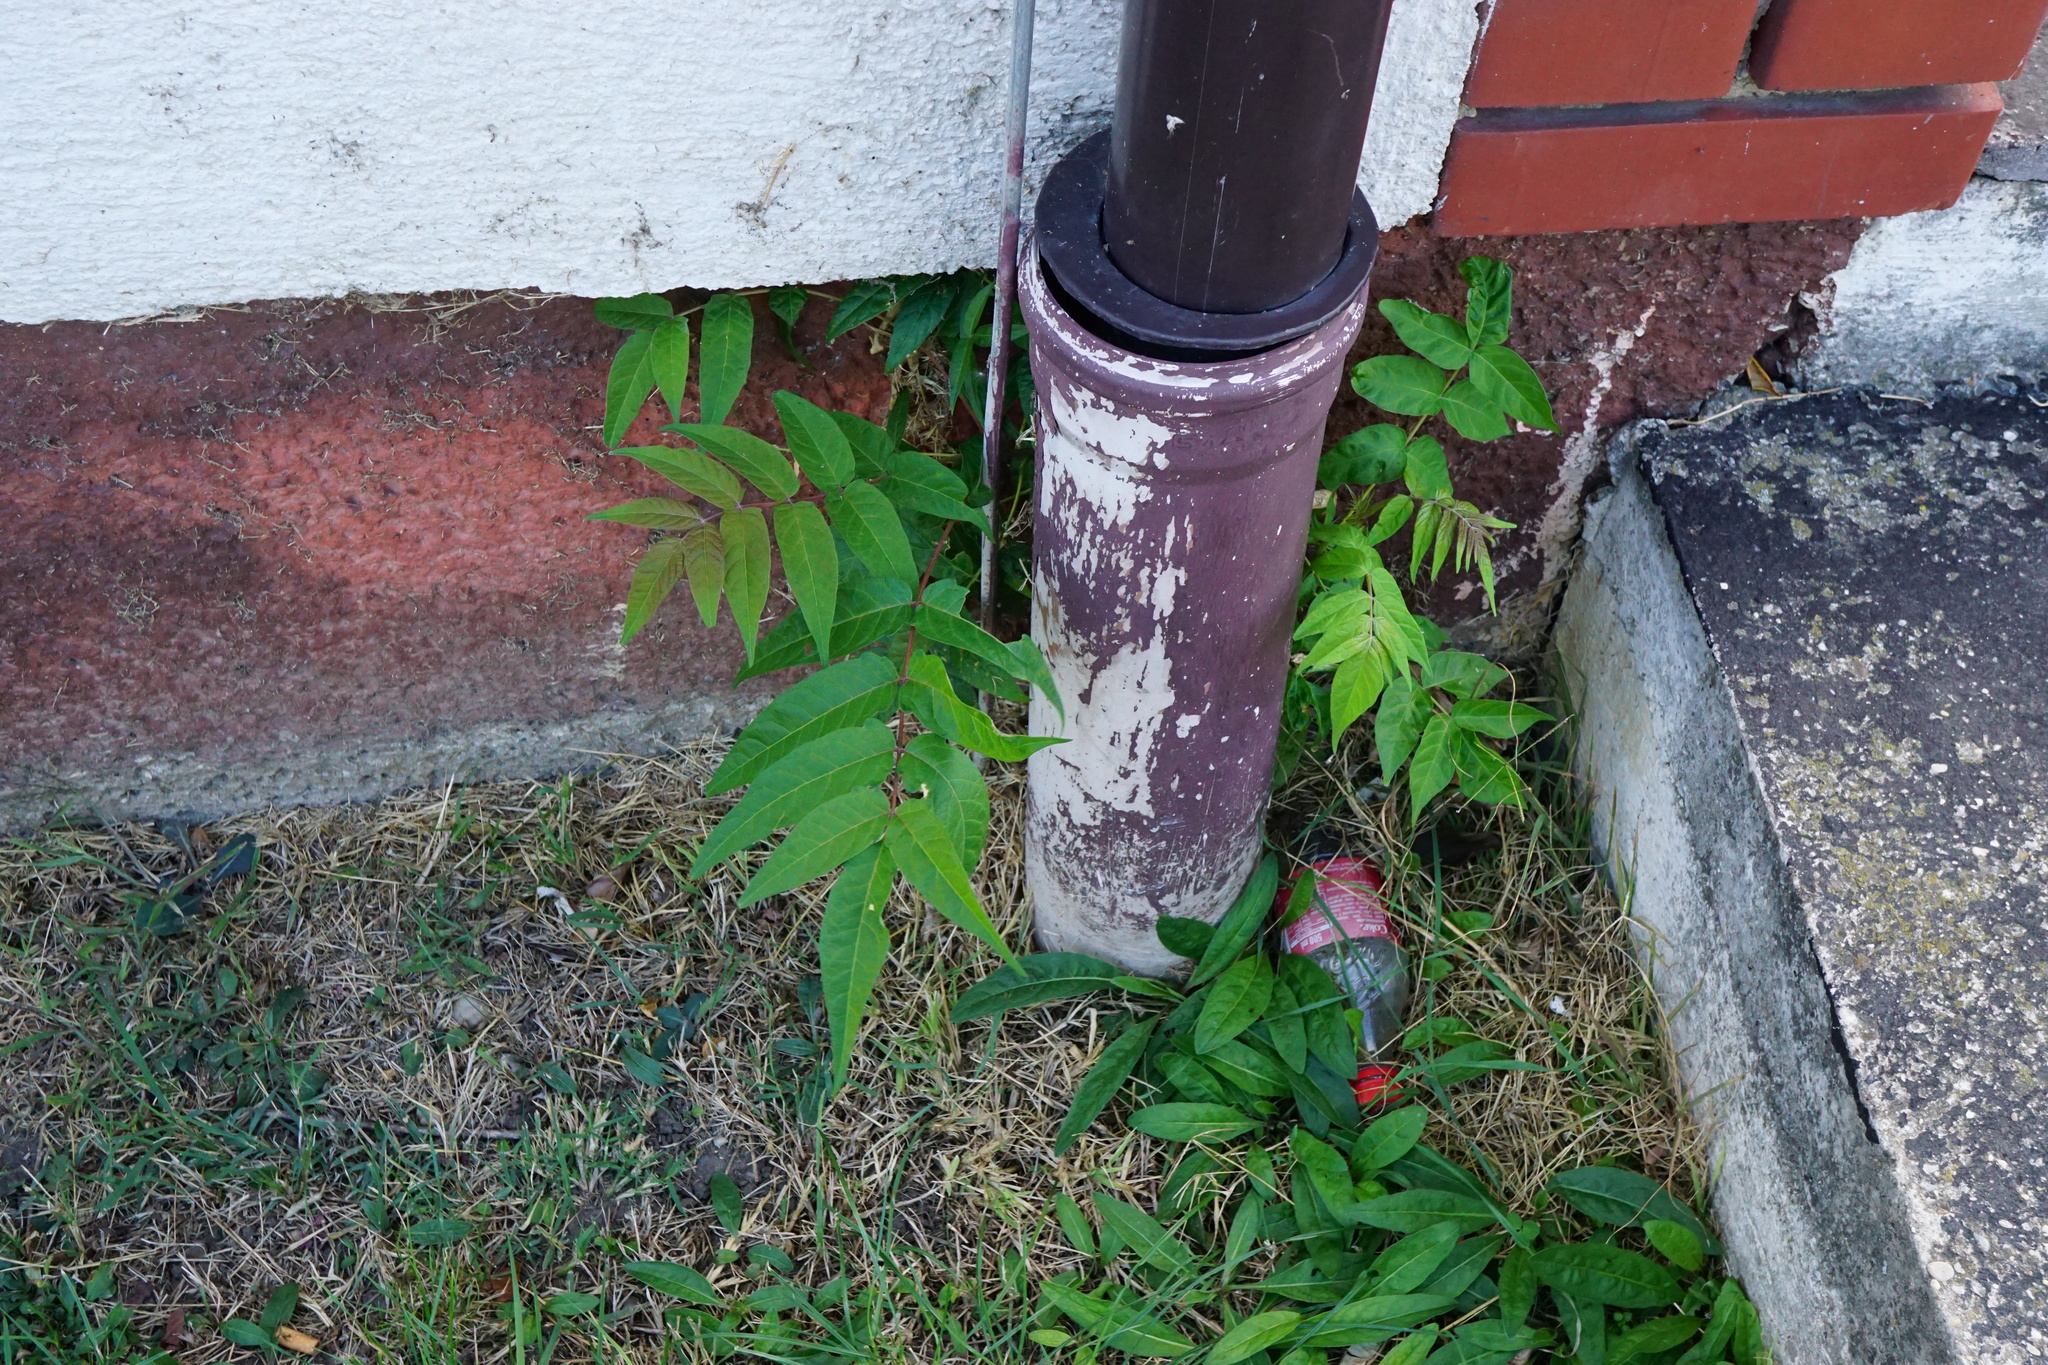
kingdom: Plantae
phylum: Tracheophyta
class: Magnoliopsida
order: Sapindales
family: Simaroubaceae
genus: Ailanthus
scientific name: Ailanthus altissima
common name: Tree-of-heaven
